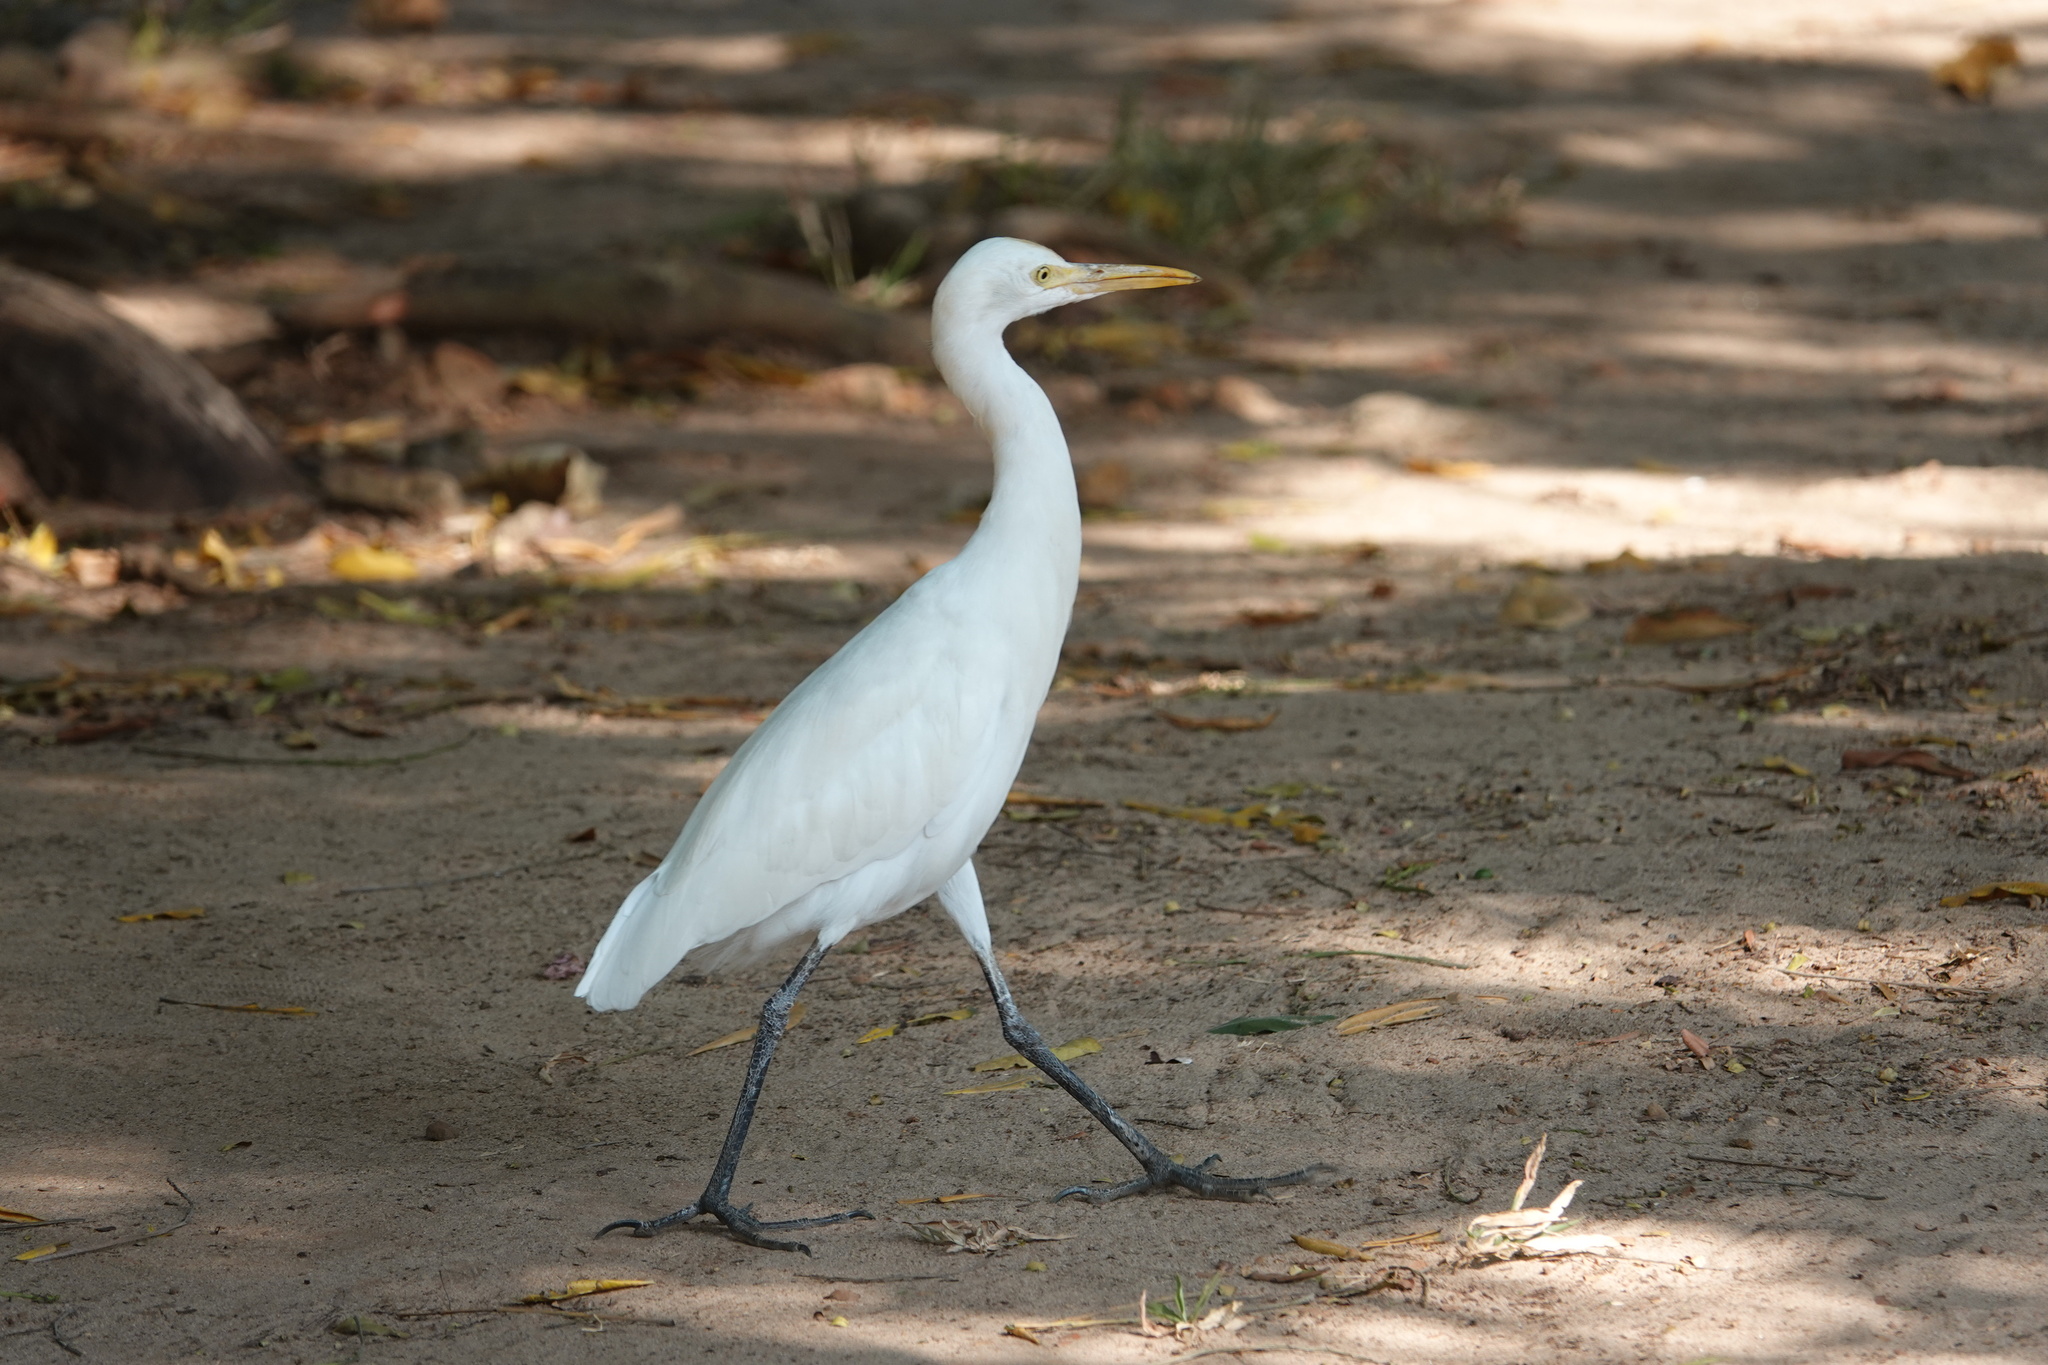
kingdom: Animalia
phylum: Chordata
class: Aves
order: Pelecaniformes
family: Ardeidae
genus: Bubulcus
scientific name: Bubulcus coromandus
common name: Eastern cattle egret
